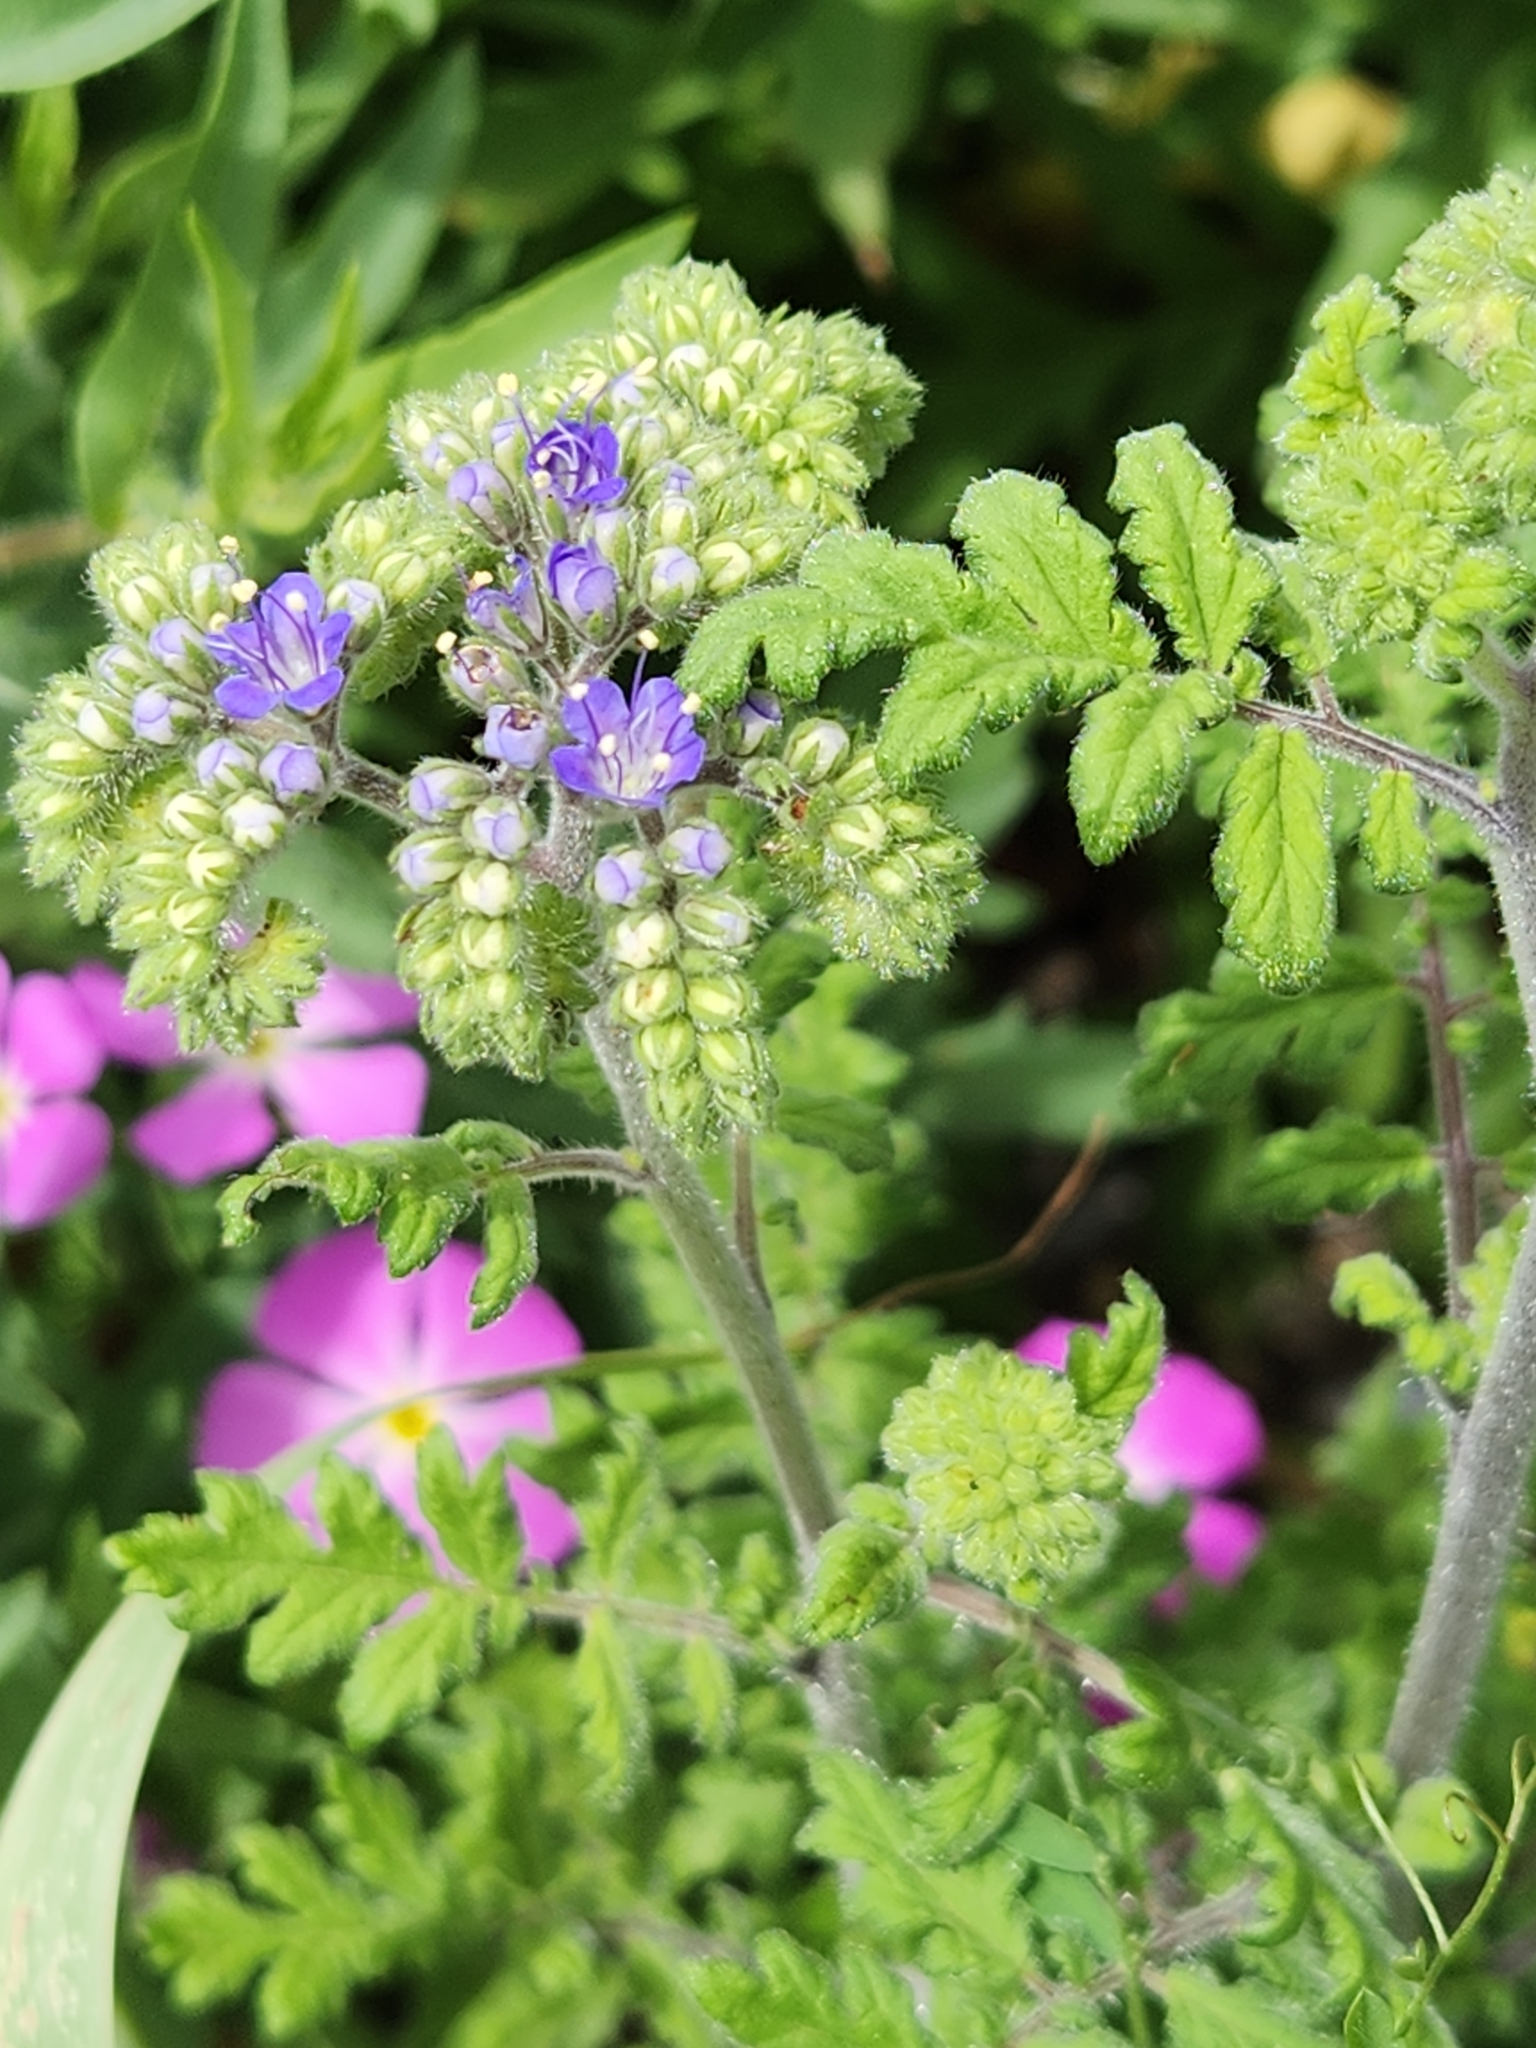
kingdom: Plantae
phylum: Tracheophyta
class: Magnoliopsida
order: Boraginales
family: Hydrophyllaceae
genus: Phacelia
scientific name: Phacelia congesta
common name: Blue curls
